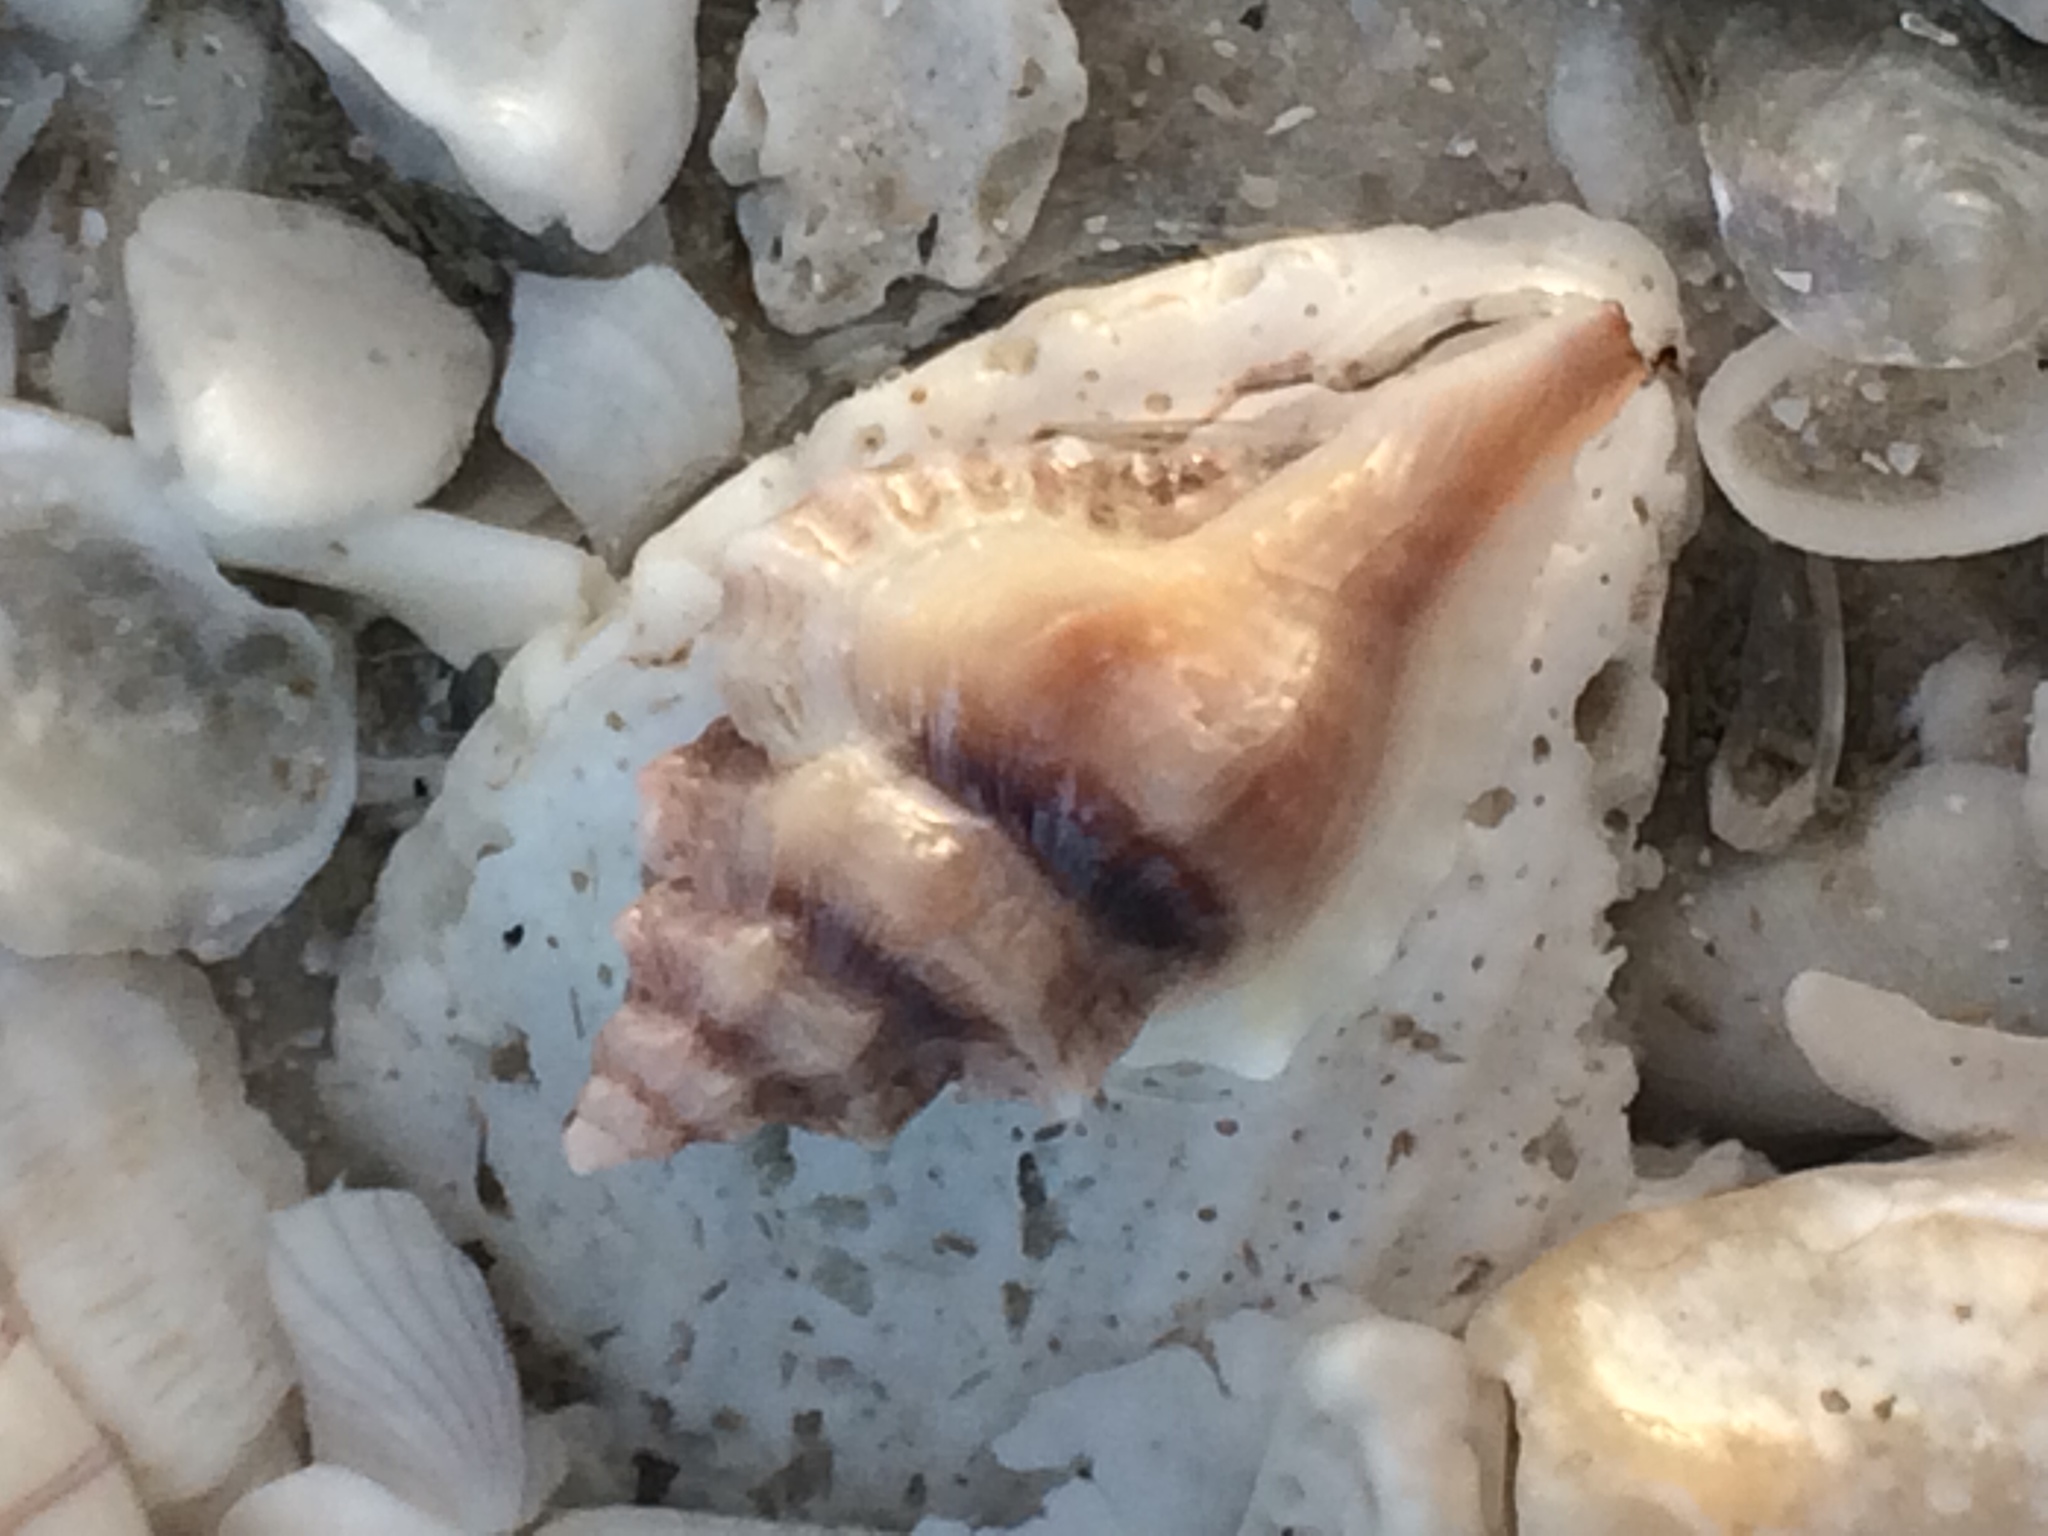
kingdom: Animalia
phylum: Mollusca
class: Gastropoda
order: Neogastropoda
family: Muricidae
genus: Eupleura
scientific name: Eupleura sulcidentata
